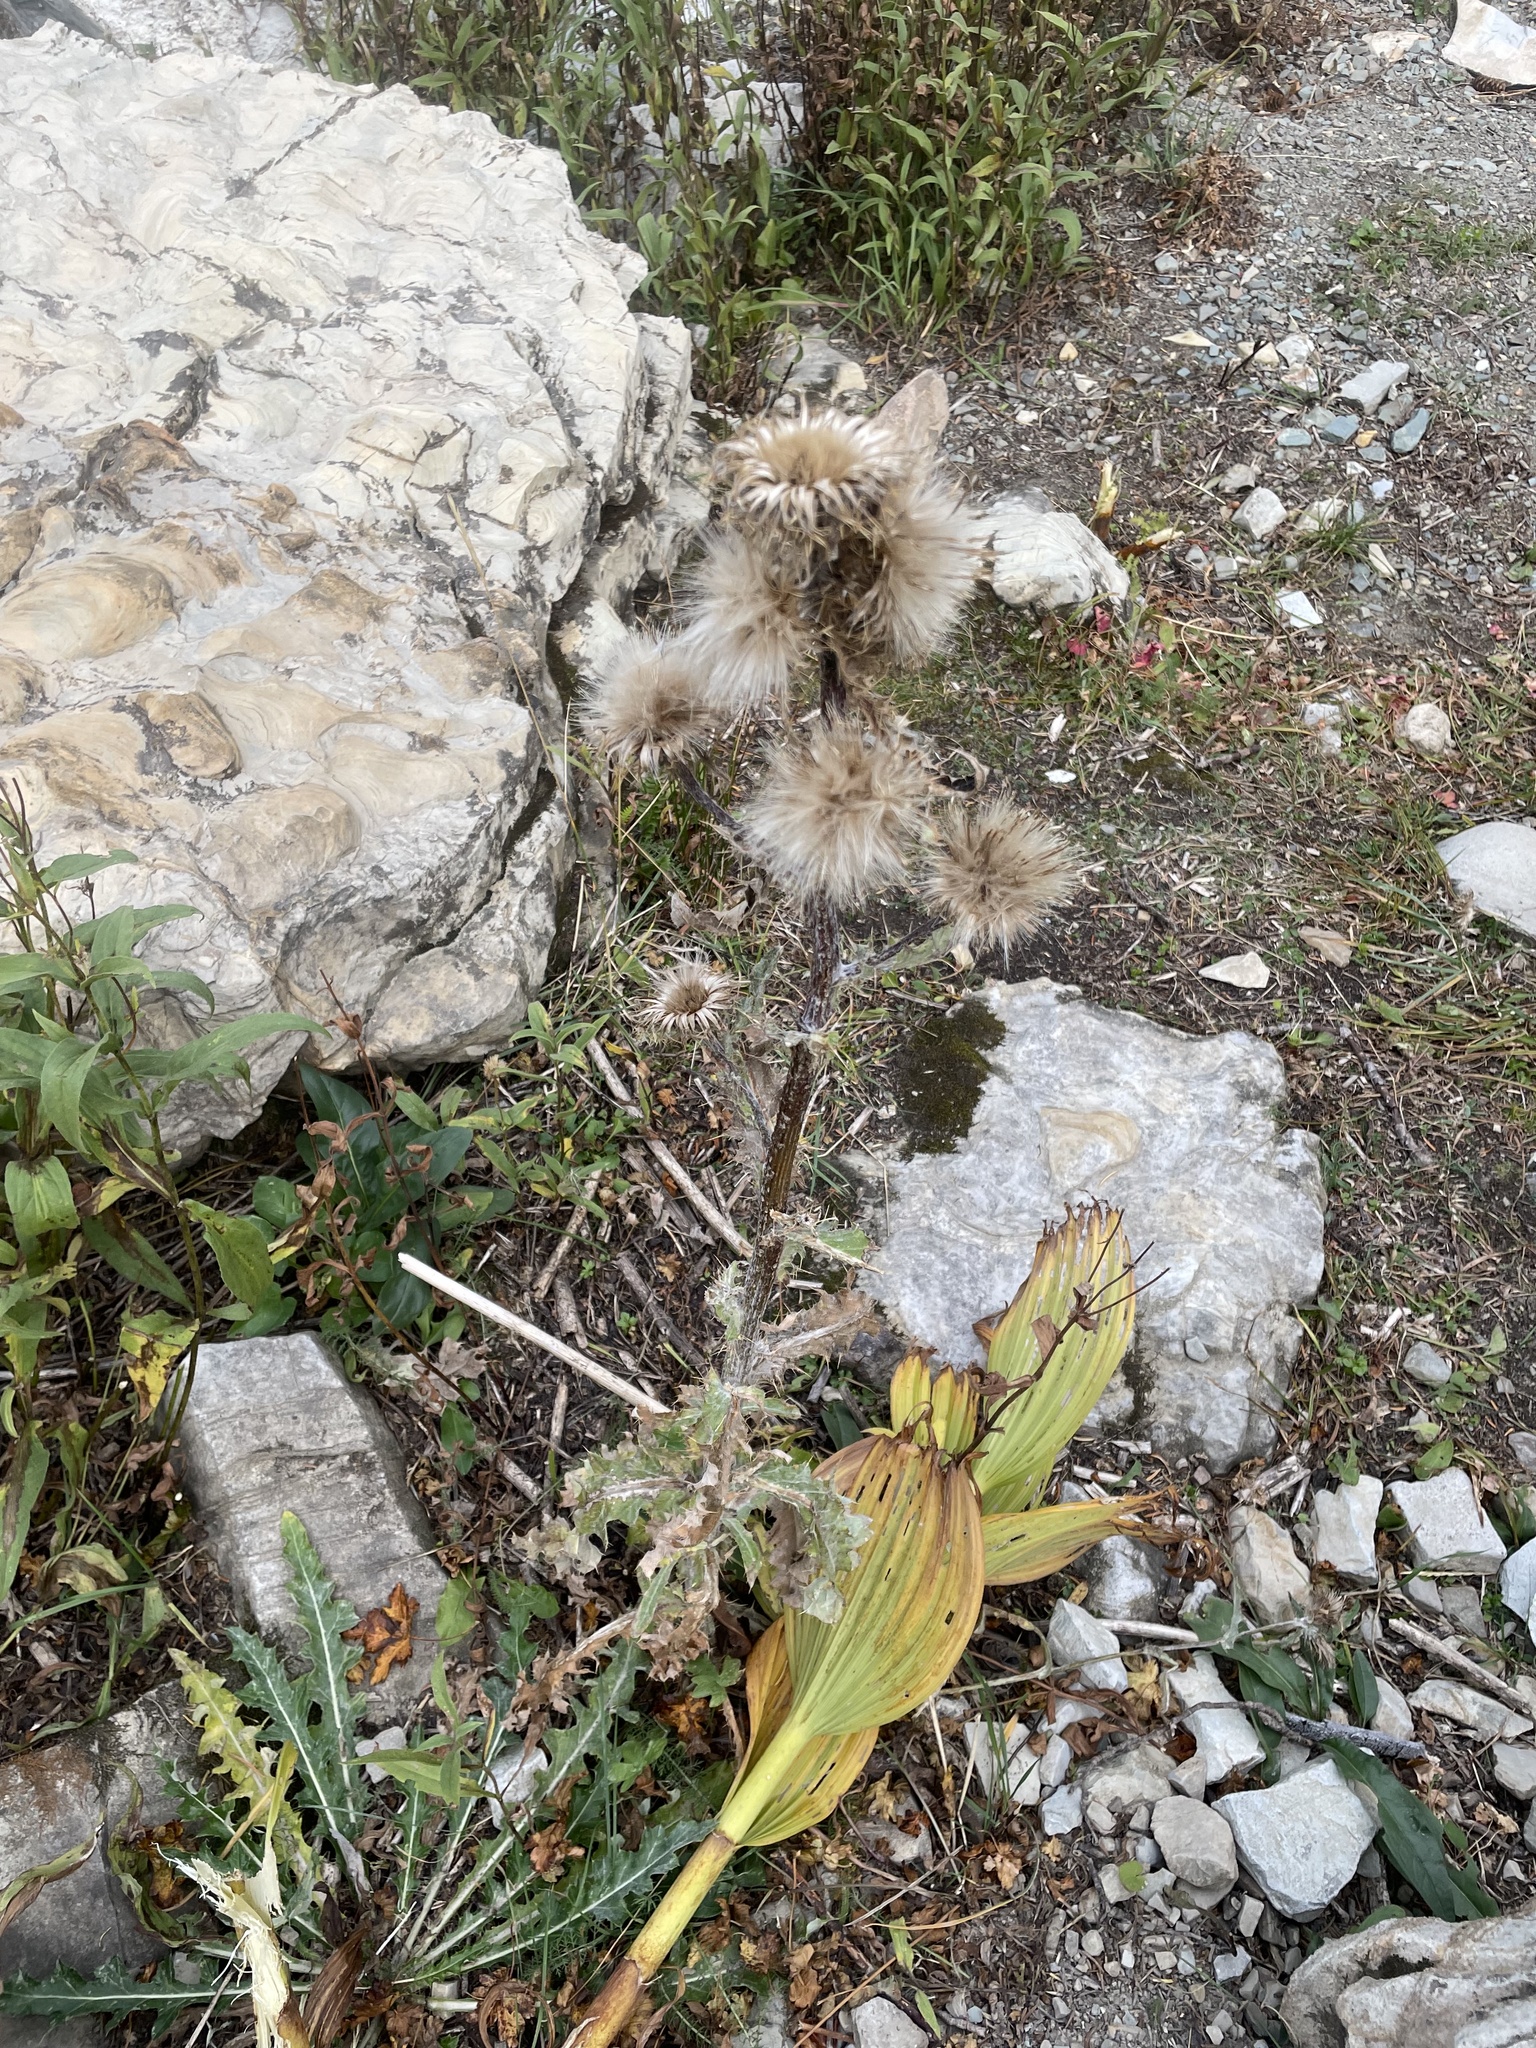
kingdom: Plantae
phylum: Tracheophyta
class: Magnoliopsida
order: Asterales
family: Asteraceae
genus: Cirsium
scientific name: Cirsium hookerianum
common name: Hooker's thistle
